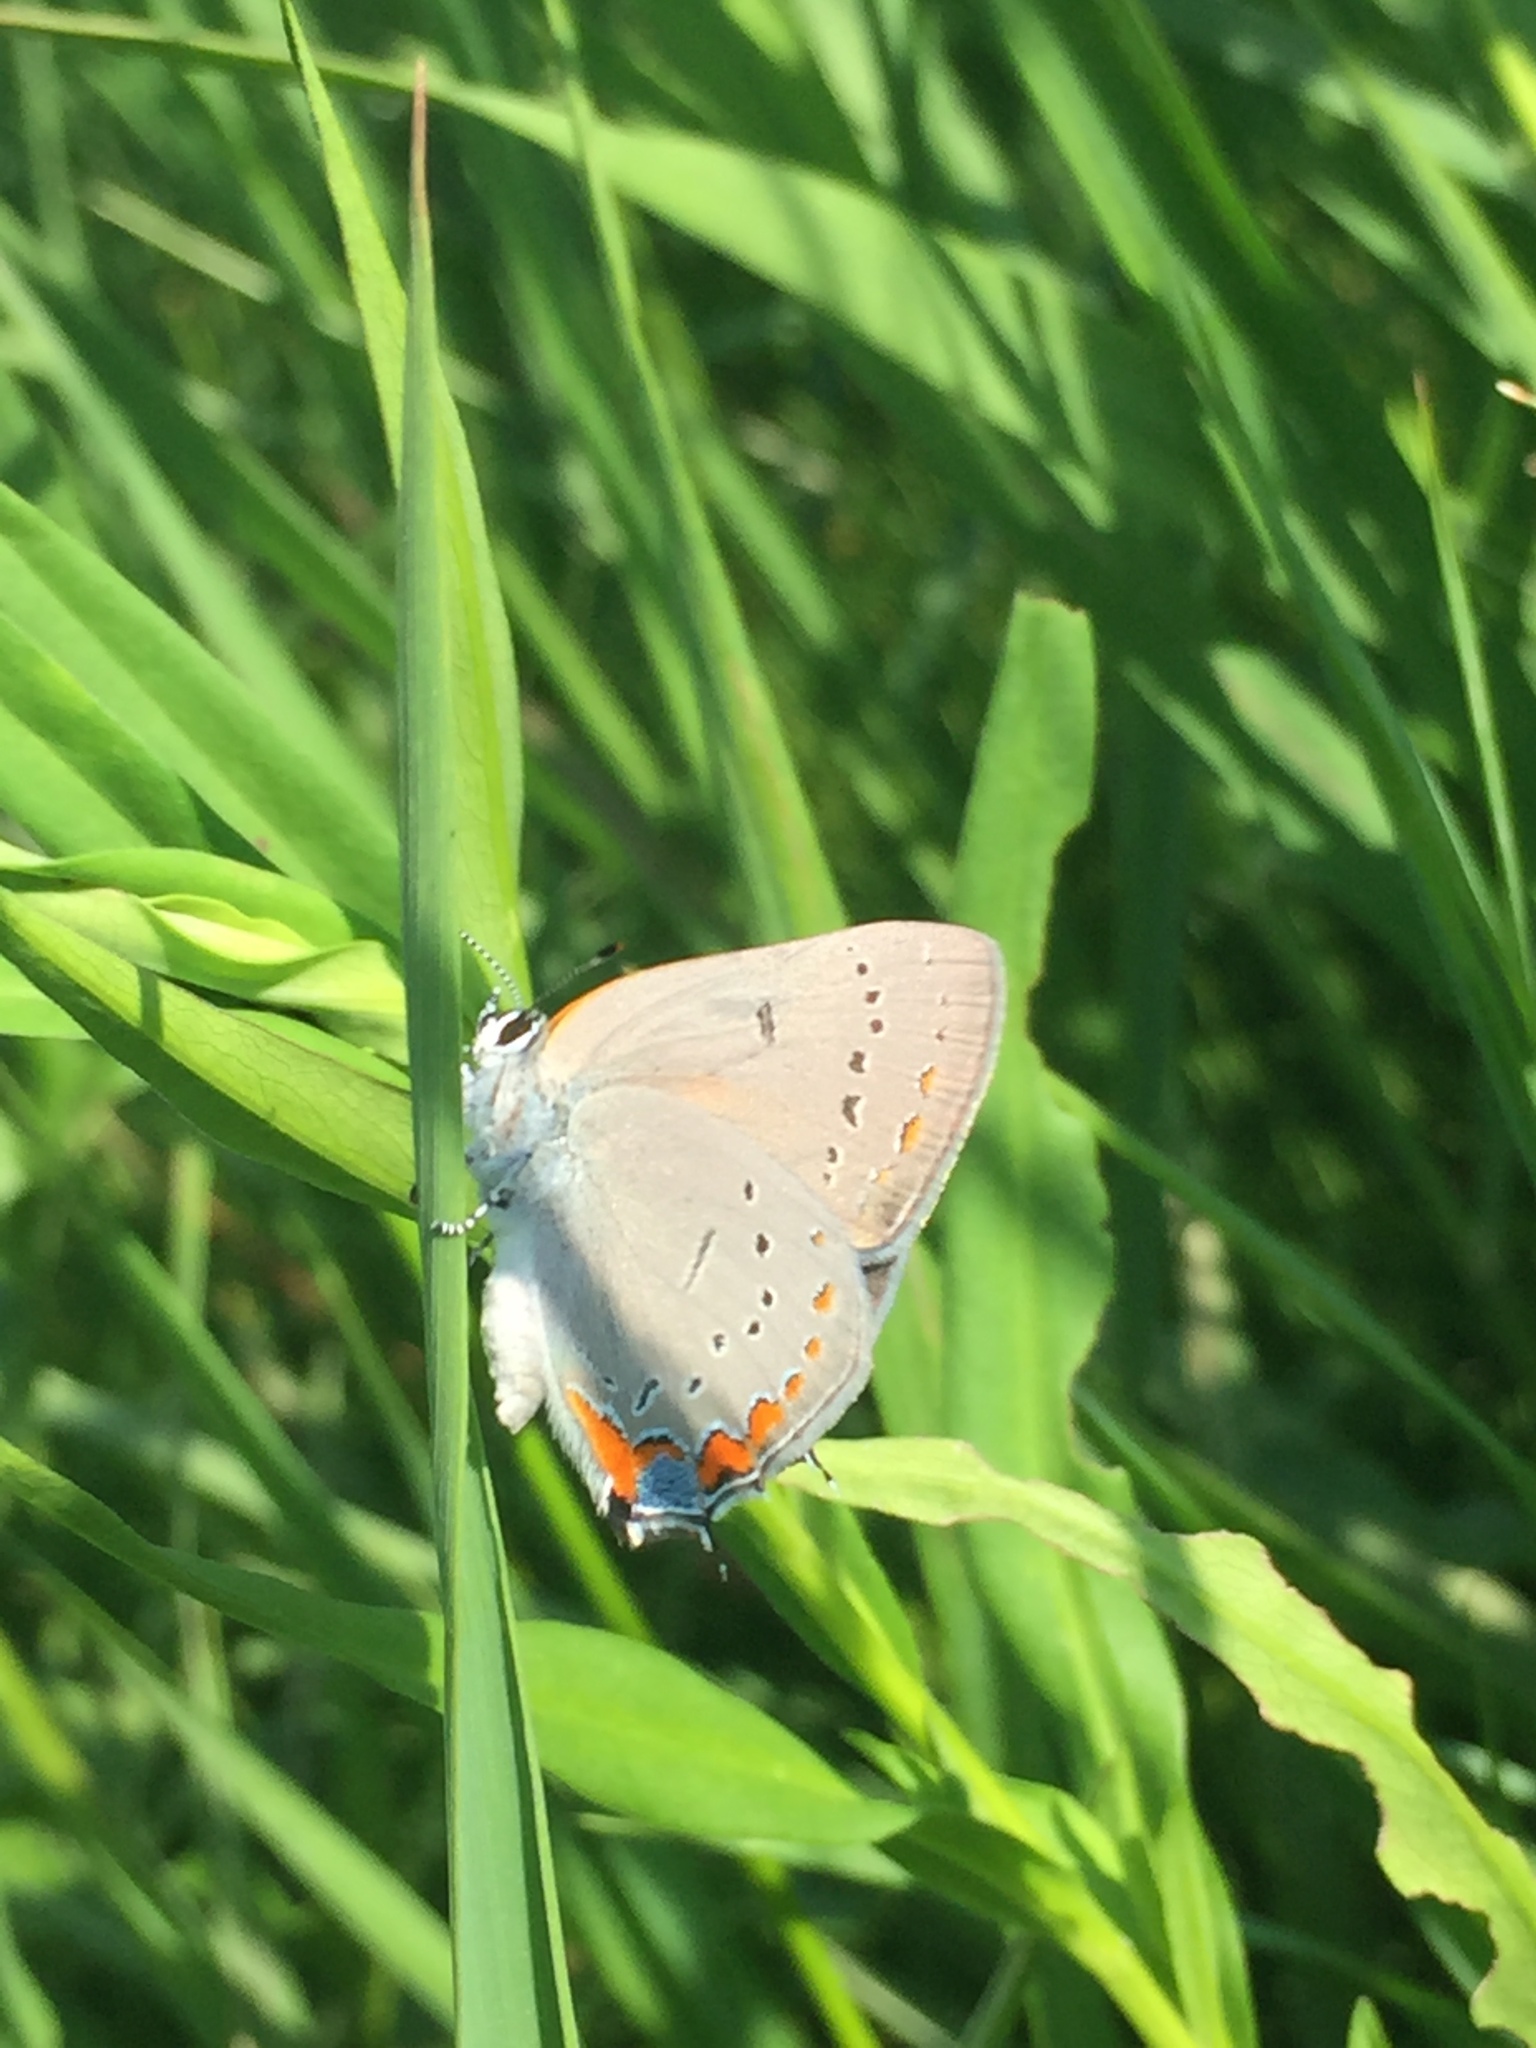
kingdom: Animalia
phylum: Arthropoda
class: Insecta
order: Lepidoptera
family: Lycaenidae
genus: Strymon
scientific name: Strymon acadica
